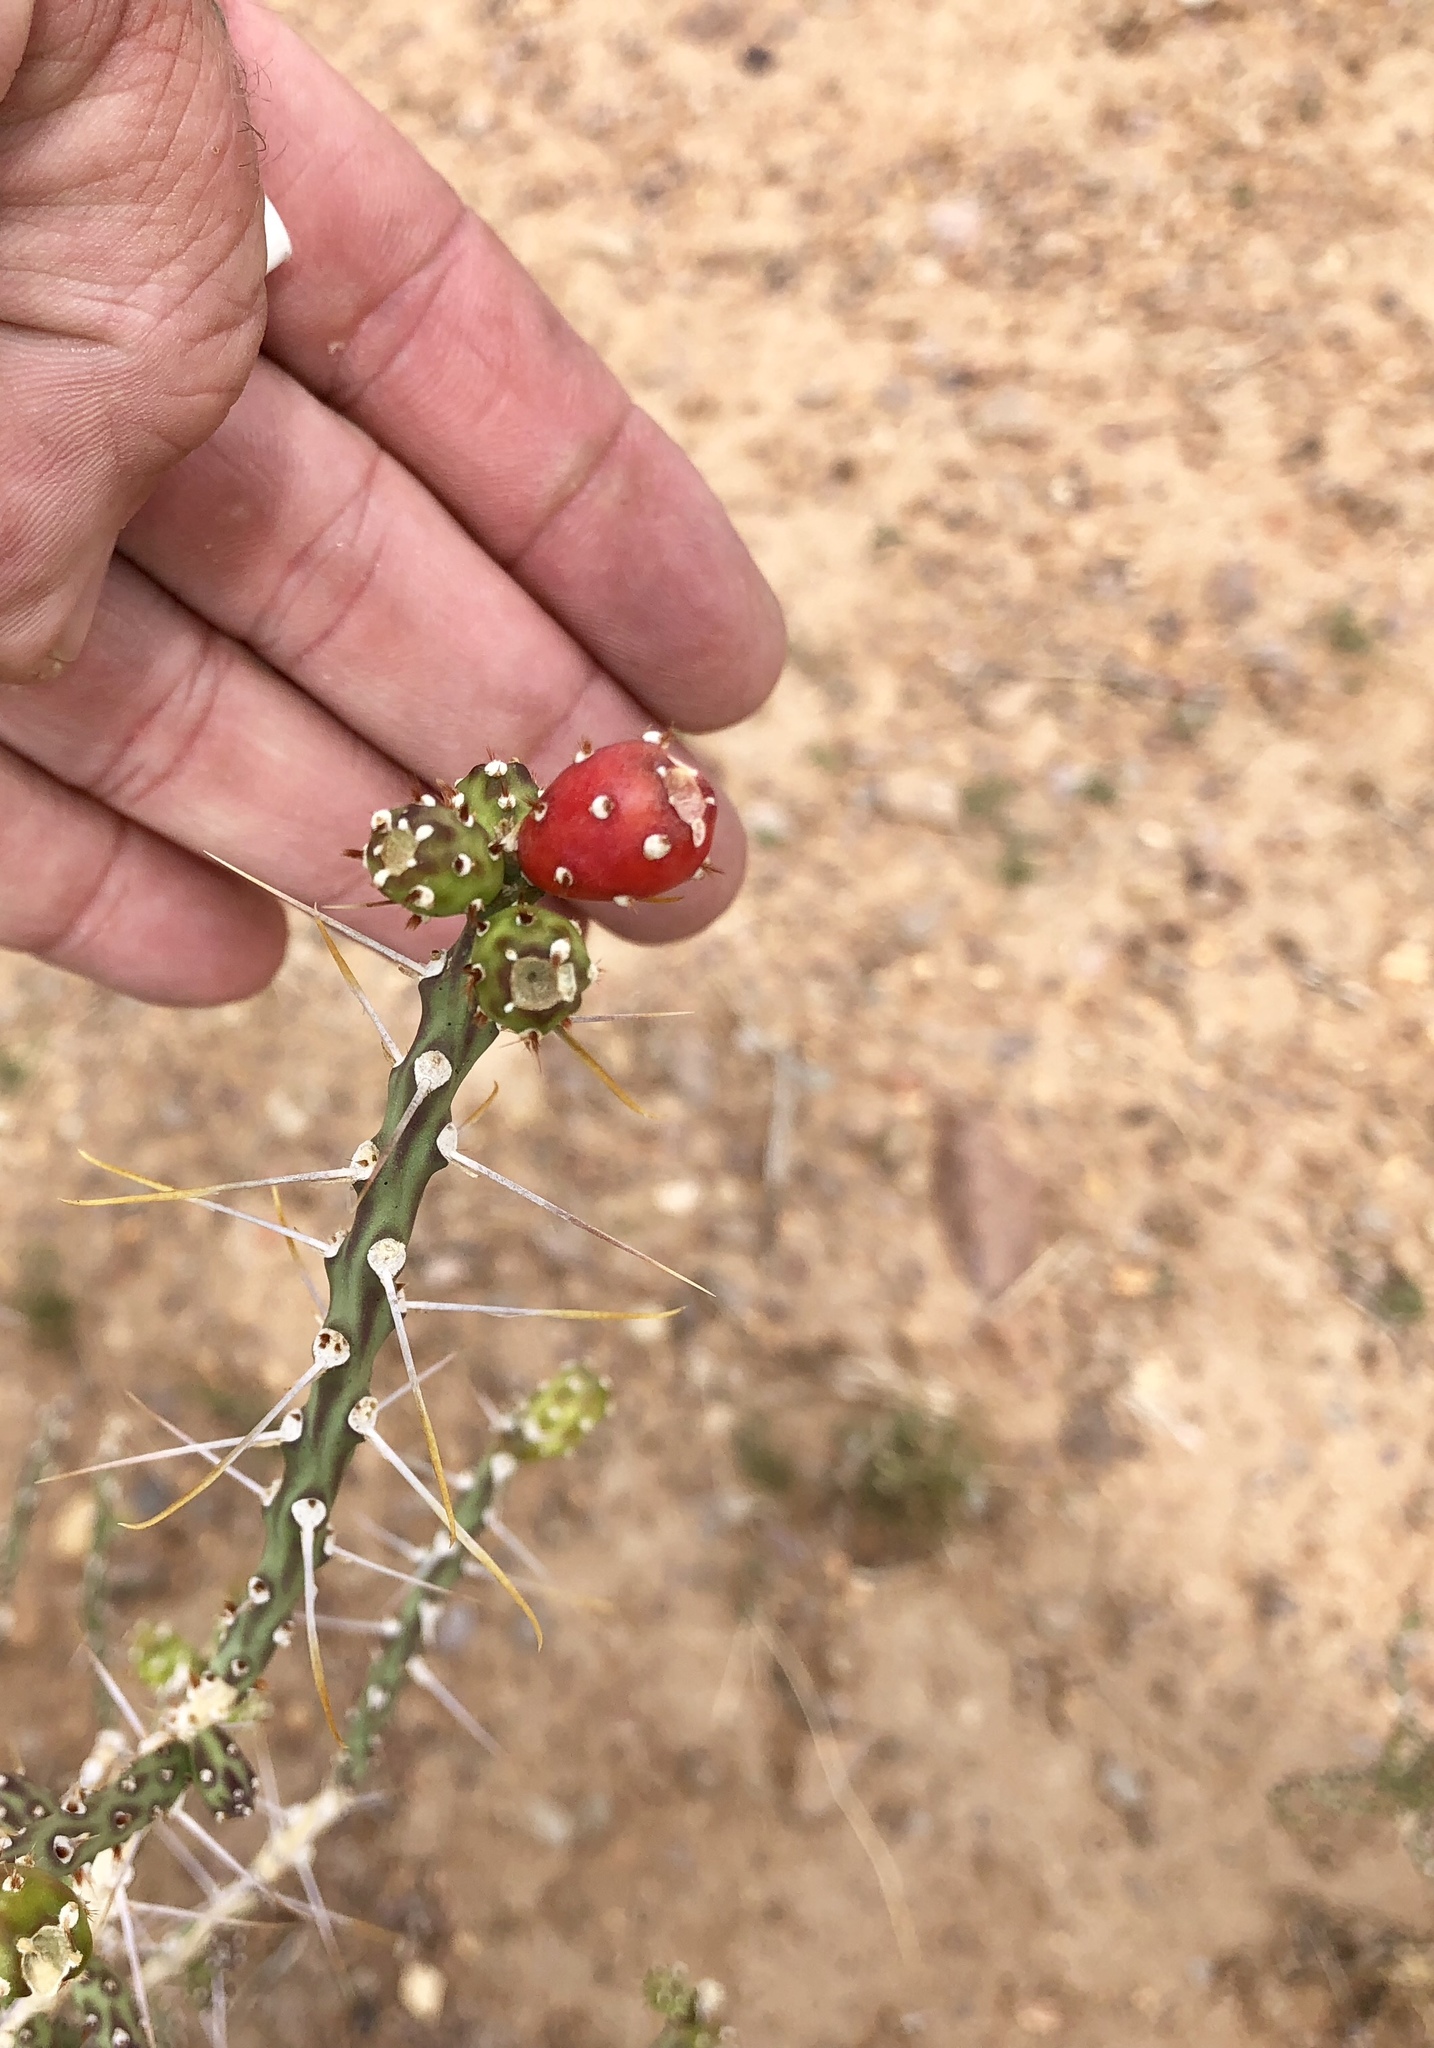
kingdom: Plantae
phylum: Tracheophyta
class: Magnoliopsida
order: Caryophyllales
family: Cactaceae
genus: Cylindropuntia
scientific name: Cylindropuntia leptocaulis
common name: Christmas cactus
